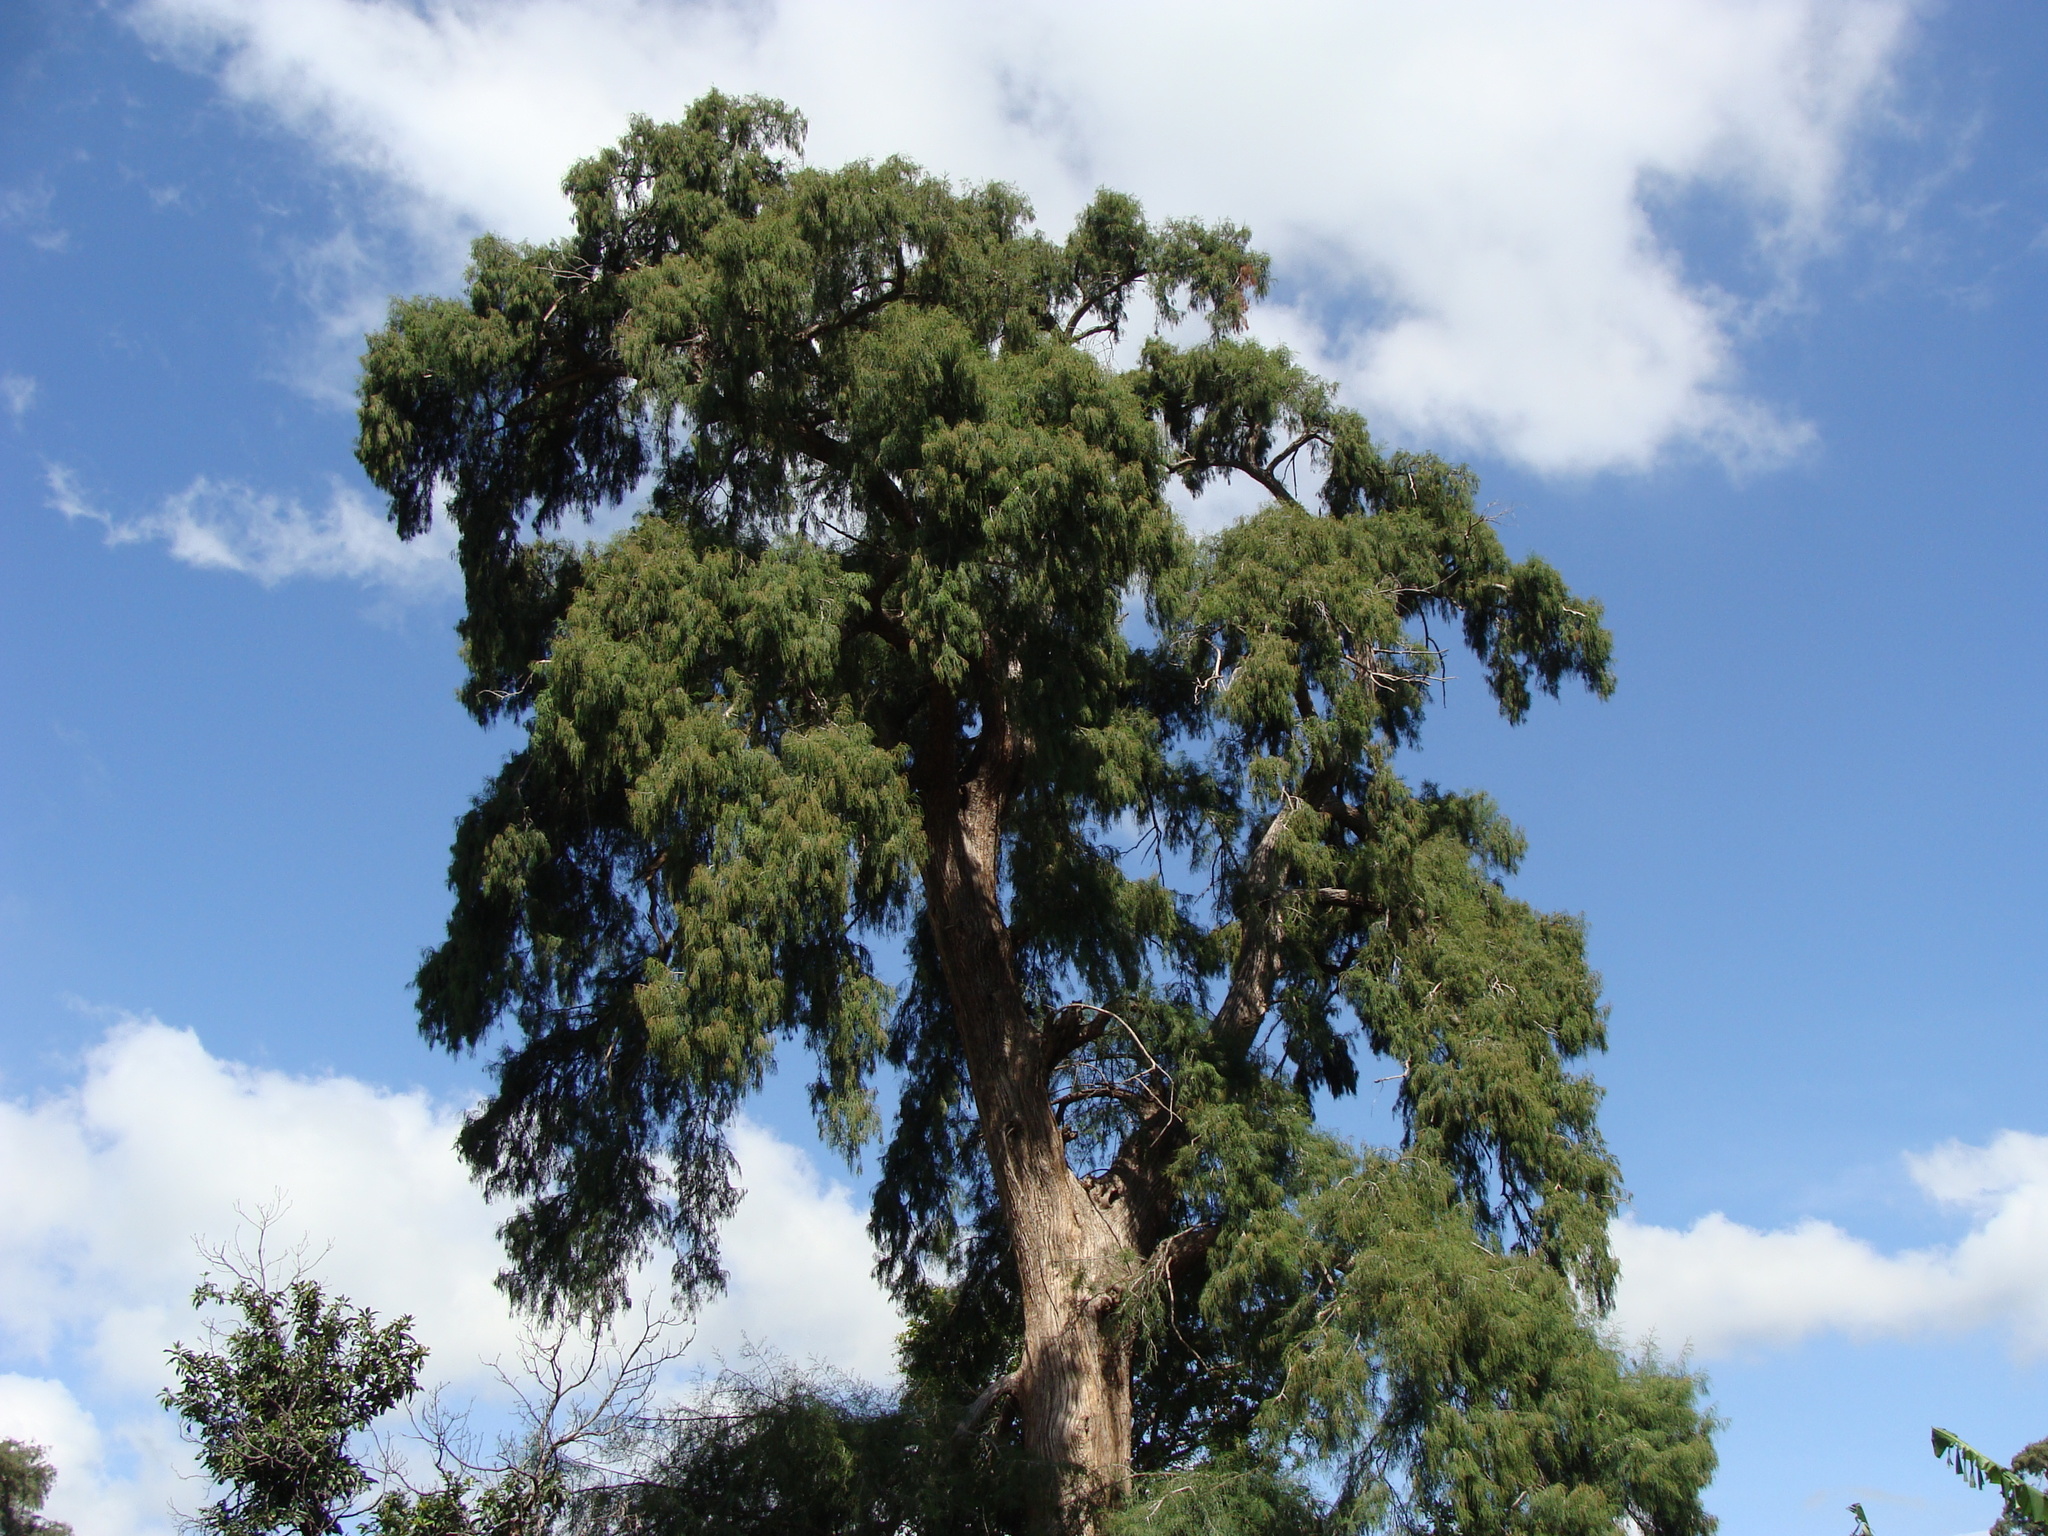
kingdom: Plantae
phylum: Tracheophyta
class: Pinopsida
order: Pinales
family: Cupressaceae
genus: Taxodium
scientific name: Taxodium mucronatum
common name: Montezume bald cypress
